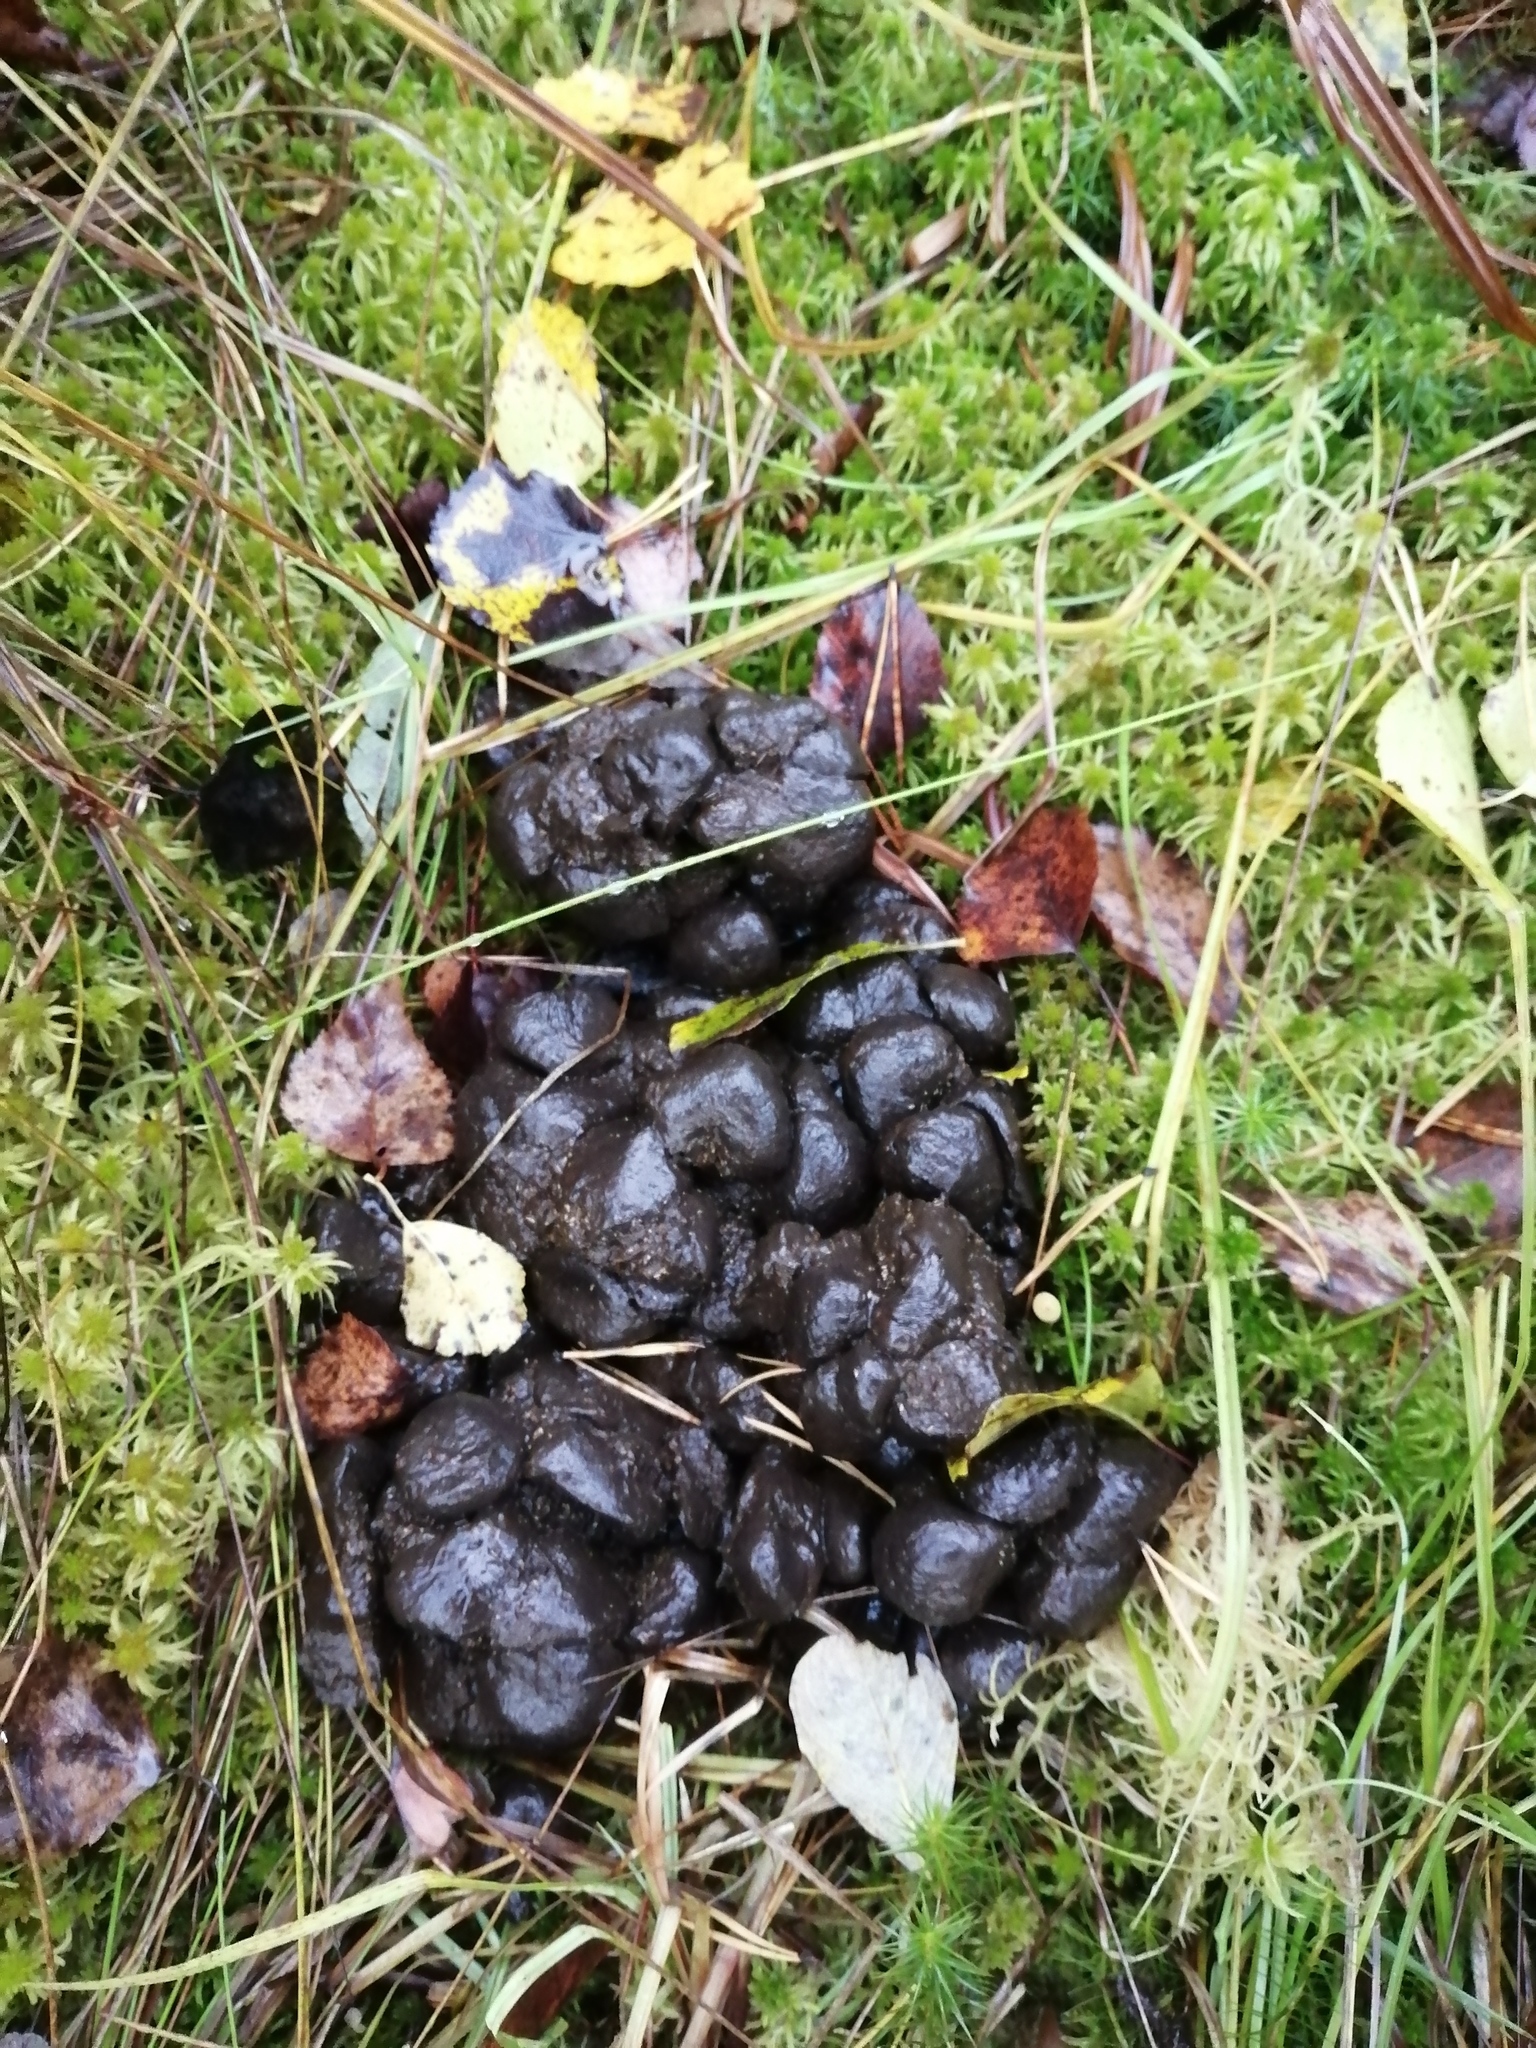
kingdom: Animalia
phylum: Chordata
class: Mammalia
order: Artiodactyla
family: Cervidae
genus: Alces
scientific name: Alces alces
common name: Moose
